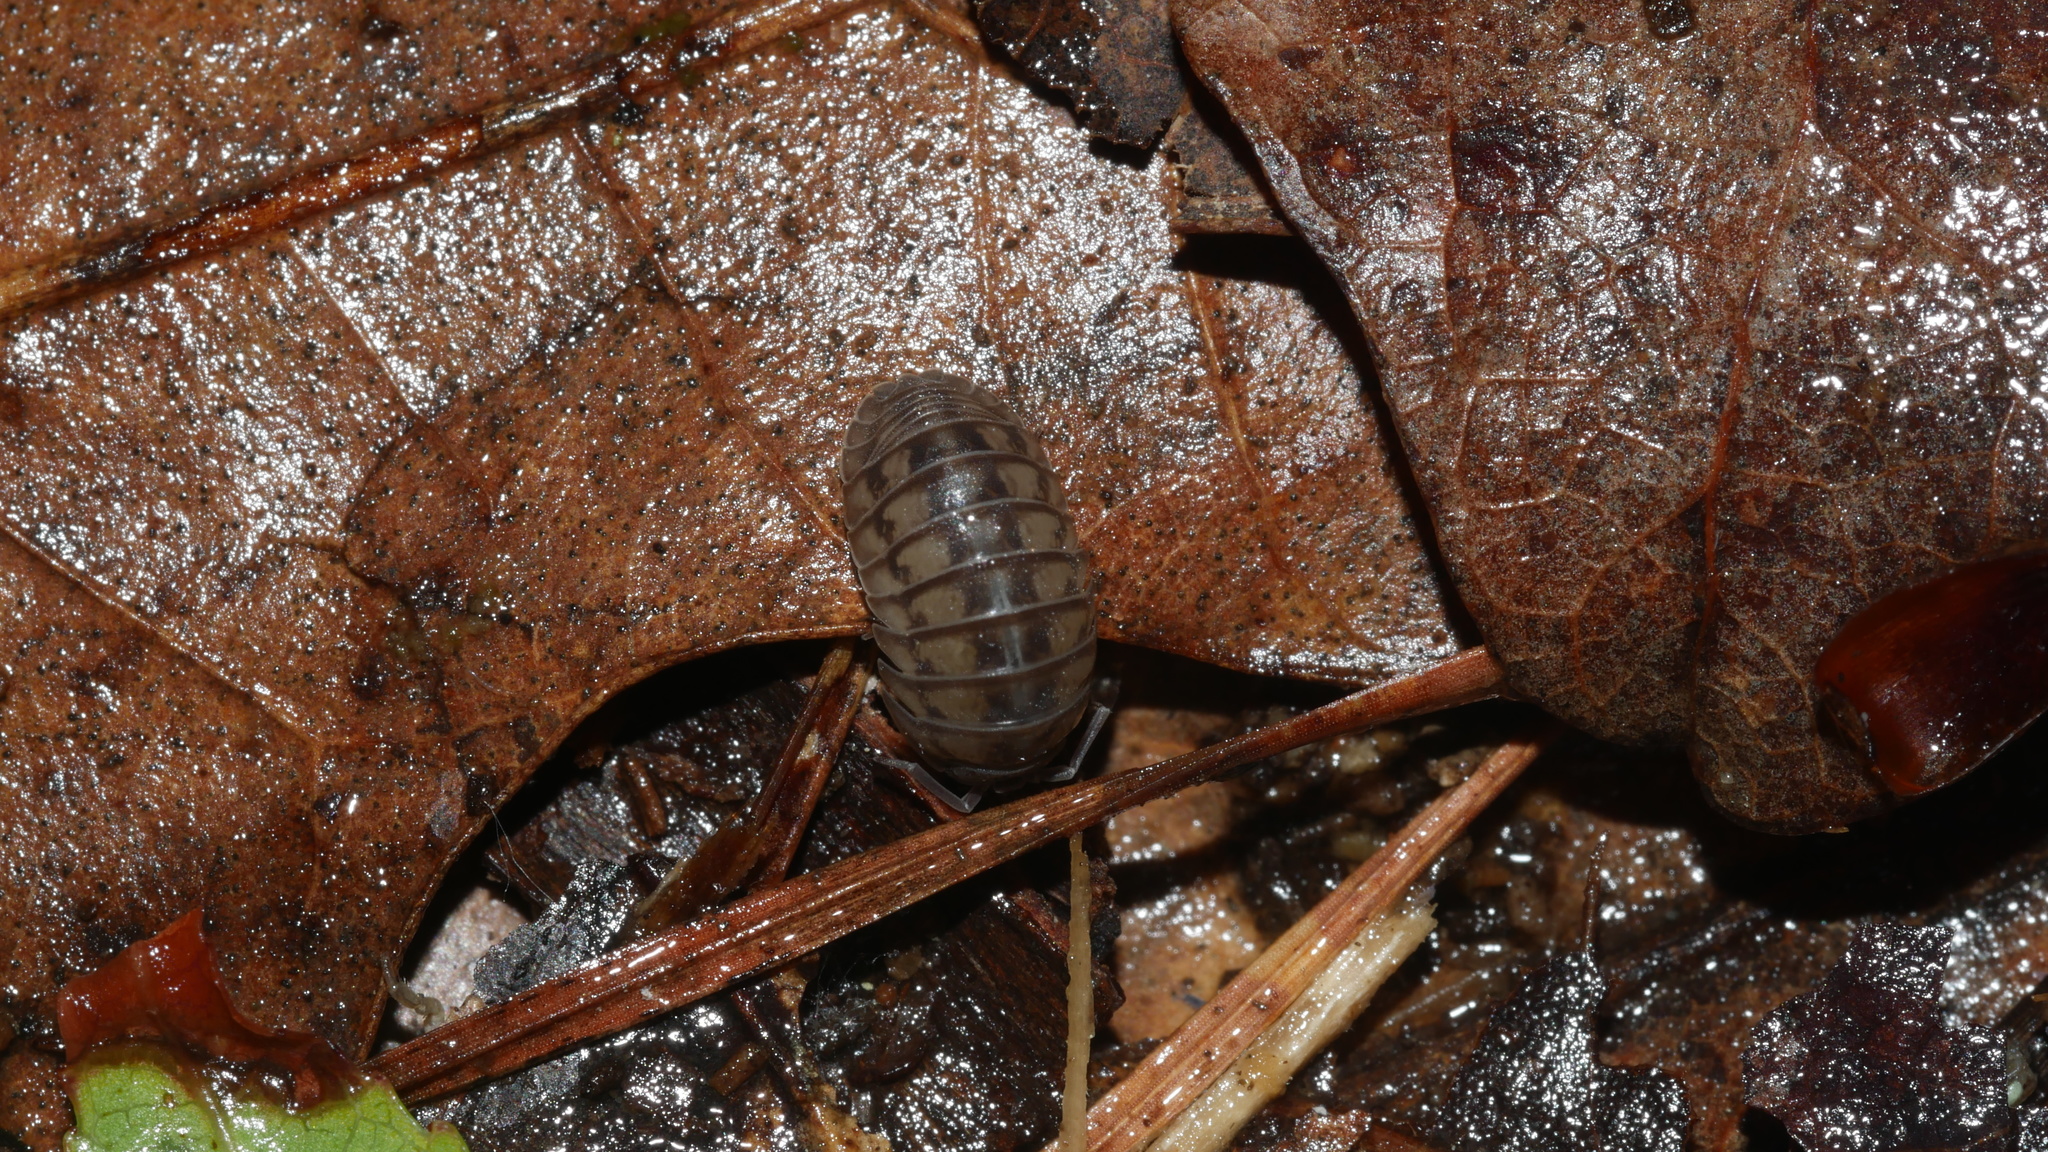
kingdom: Animalia
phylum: Arthropoda
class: Malacostraca
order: Isopoda
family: Armadillidiidae
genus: Armadillidium
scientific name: Armadillidium nasatum
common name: Isopod
